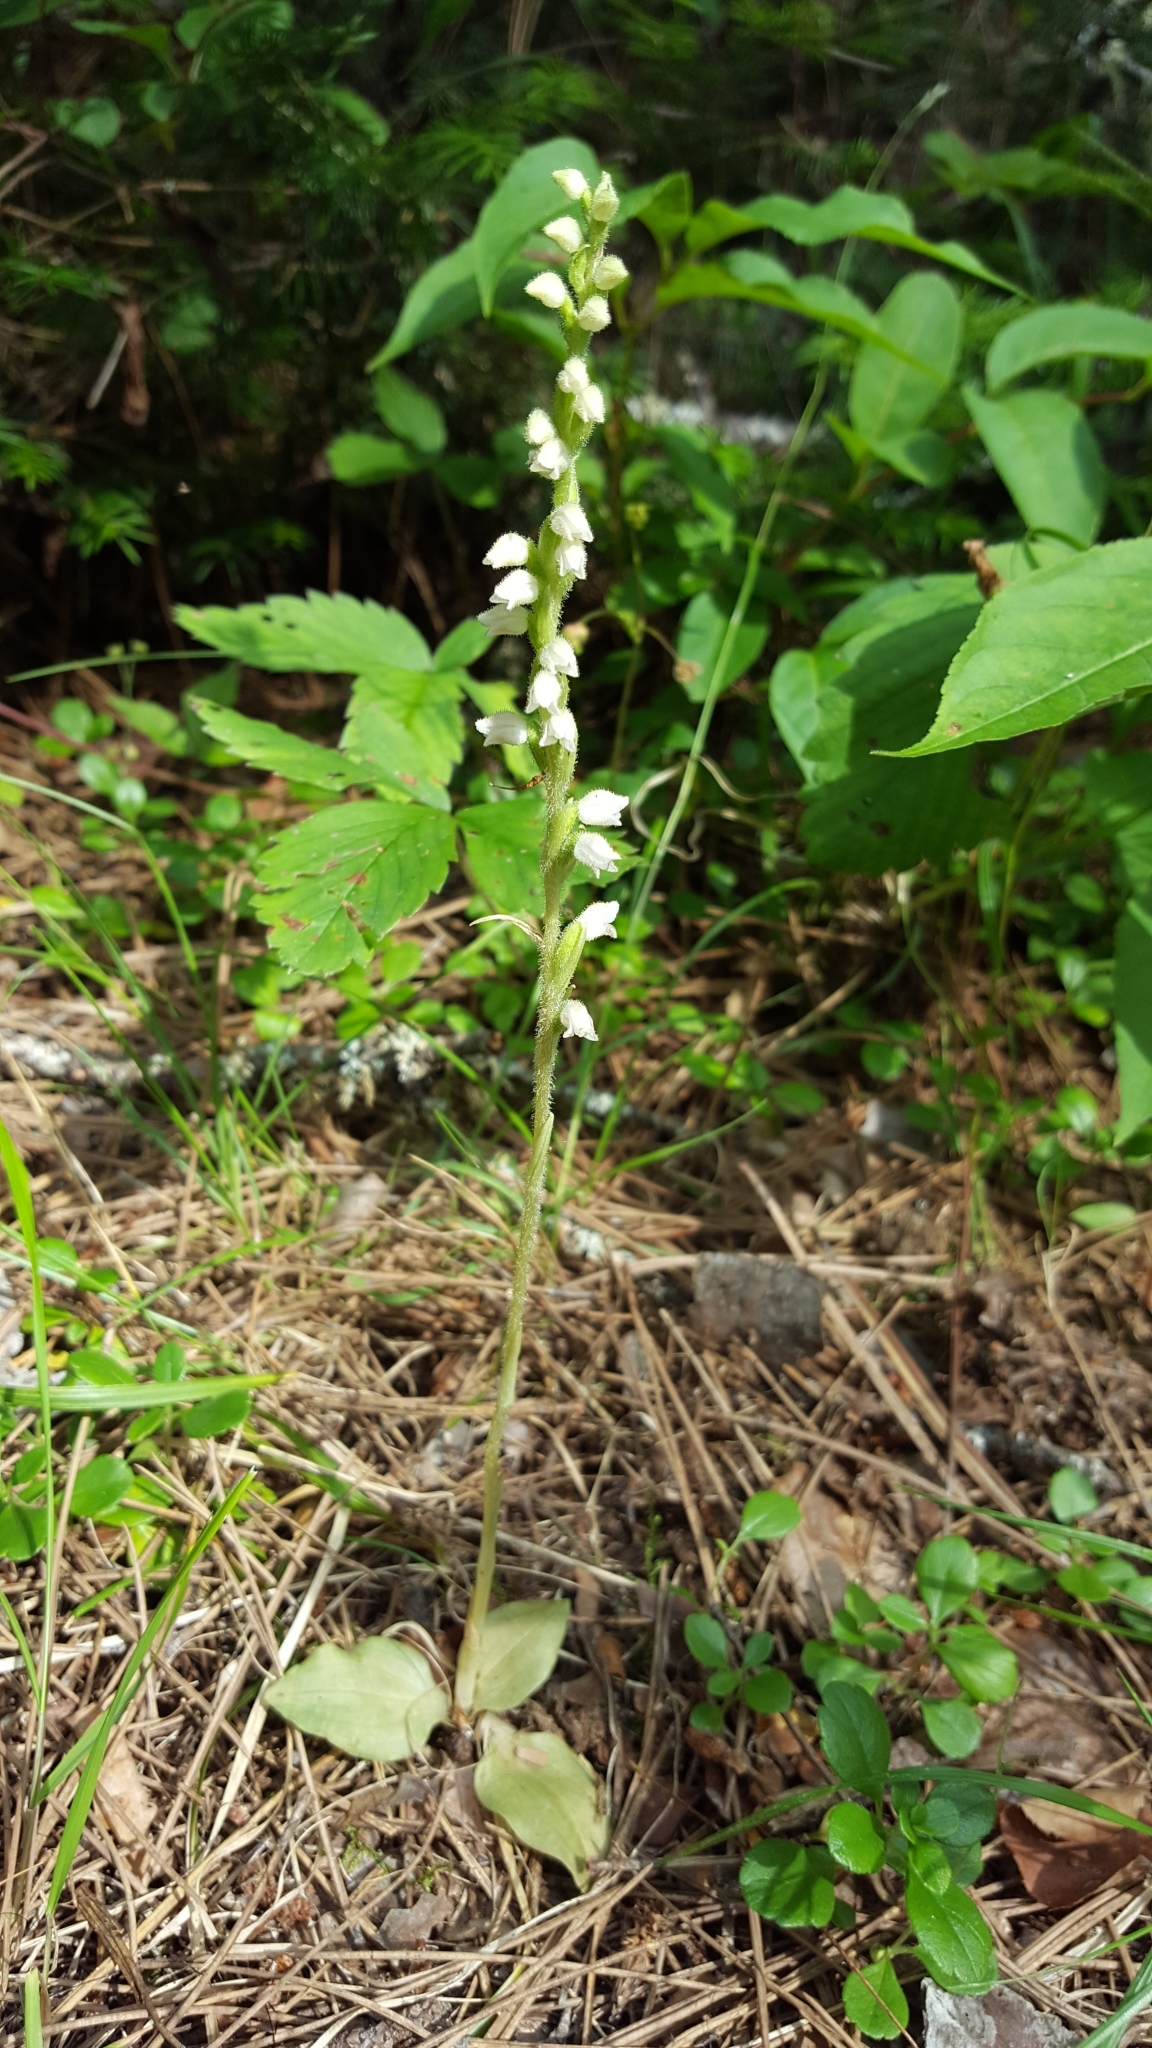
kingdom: Plantae
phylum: Tracheophyta
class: Liliopsida
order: Asparagales
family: Orchidaceae
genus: Goodyera
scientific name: Goodyera tesselata
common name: Checkered rattlesnake-plantain
